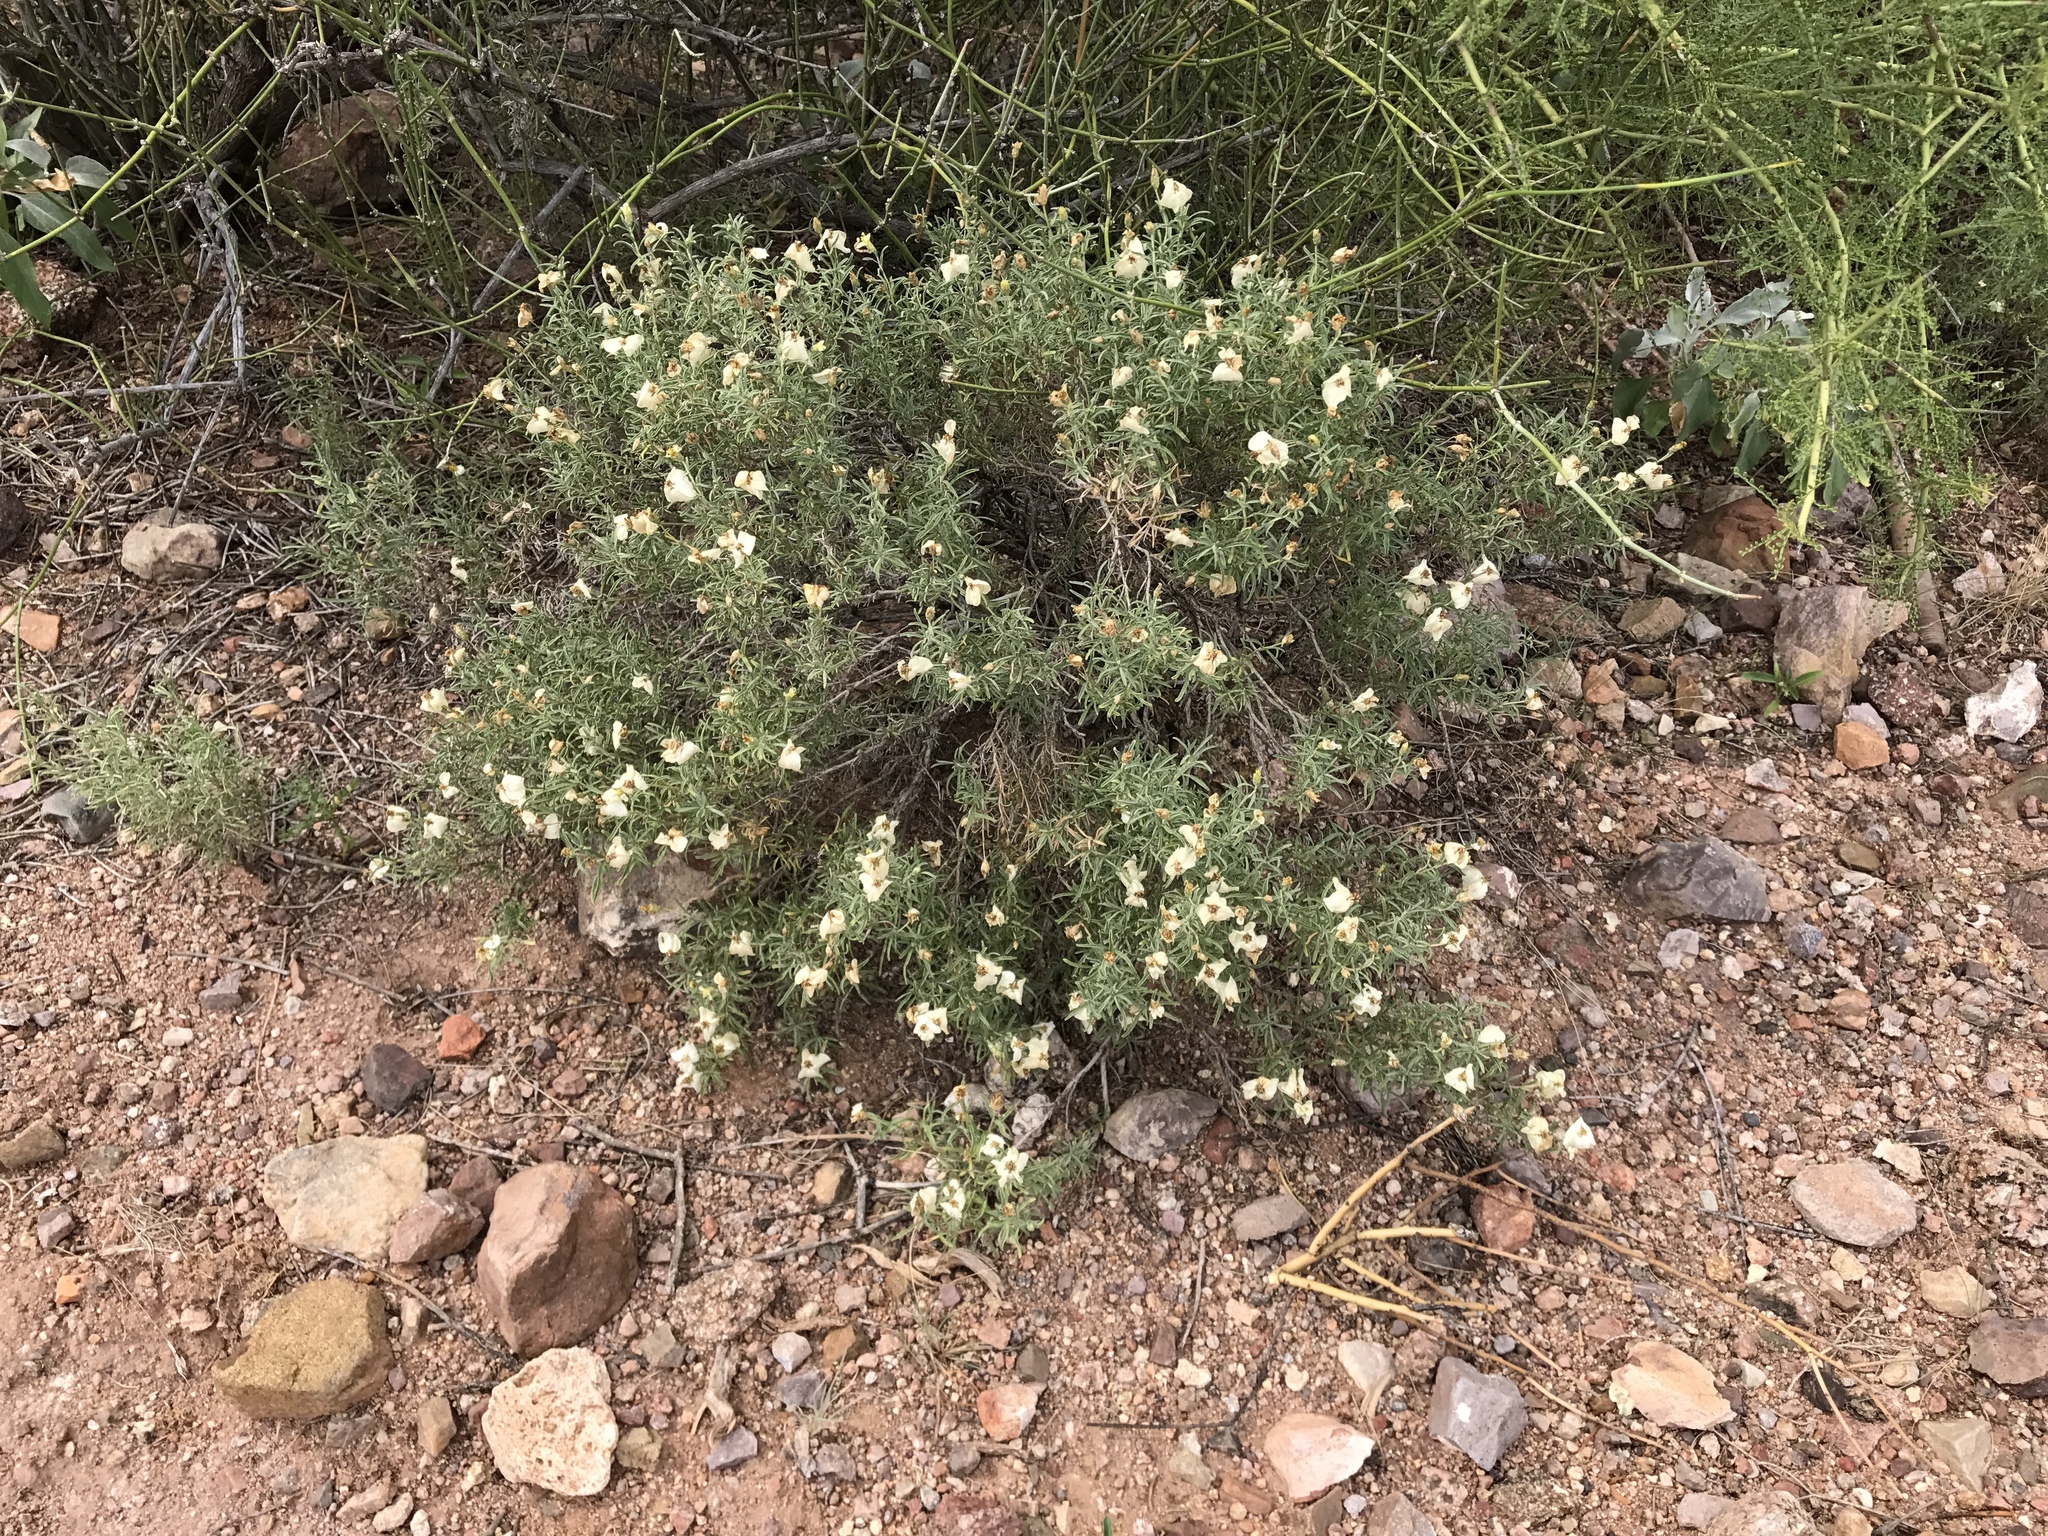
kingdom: Plantae
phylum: Tracheophyta
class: Magnoliopsida
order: Asterales
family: Asteraceae
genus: Zinnia
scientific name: Zinnia acerosa
